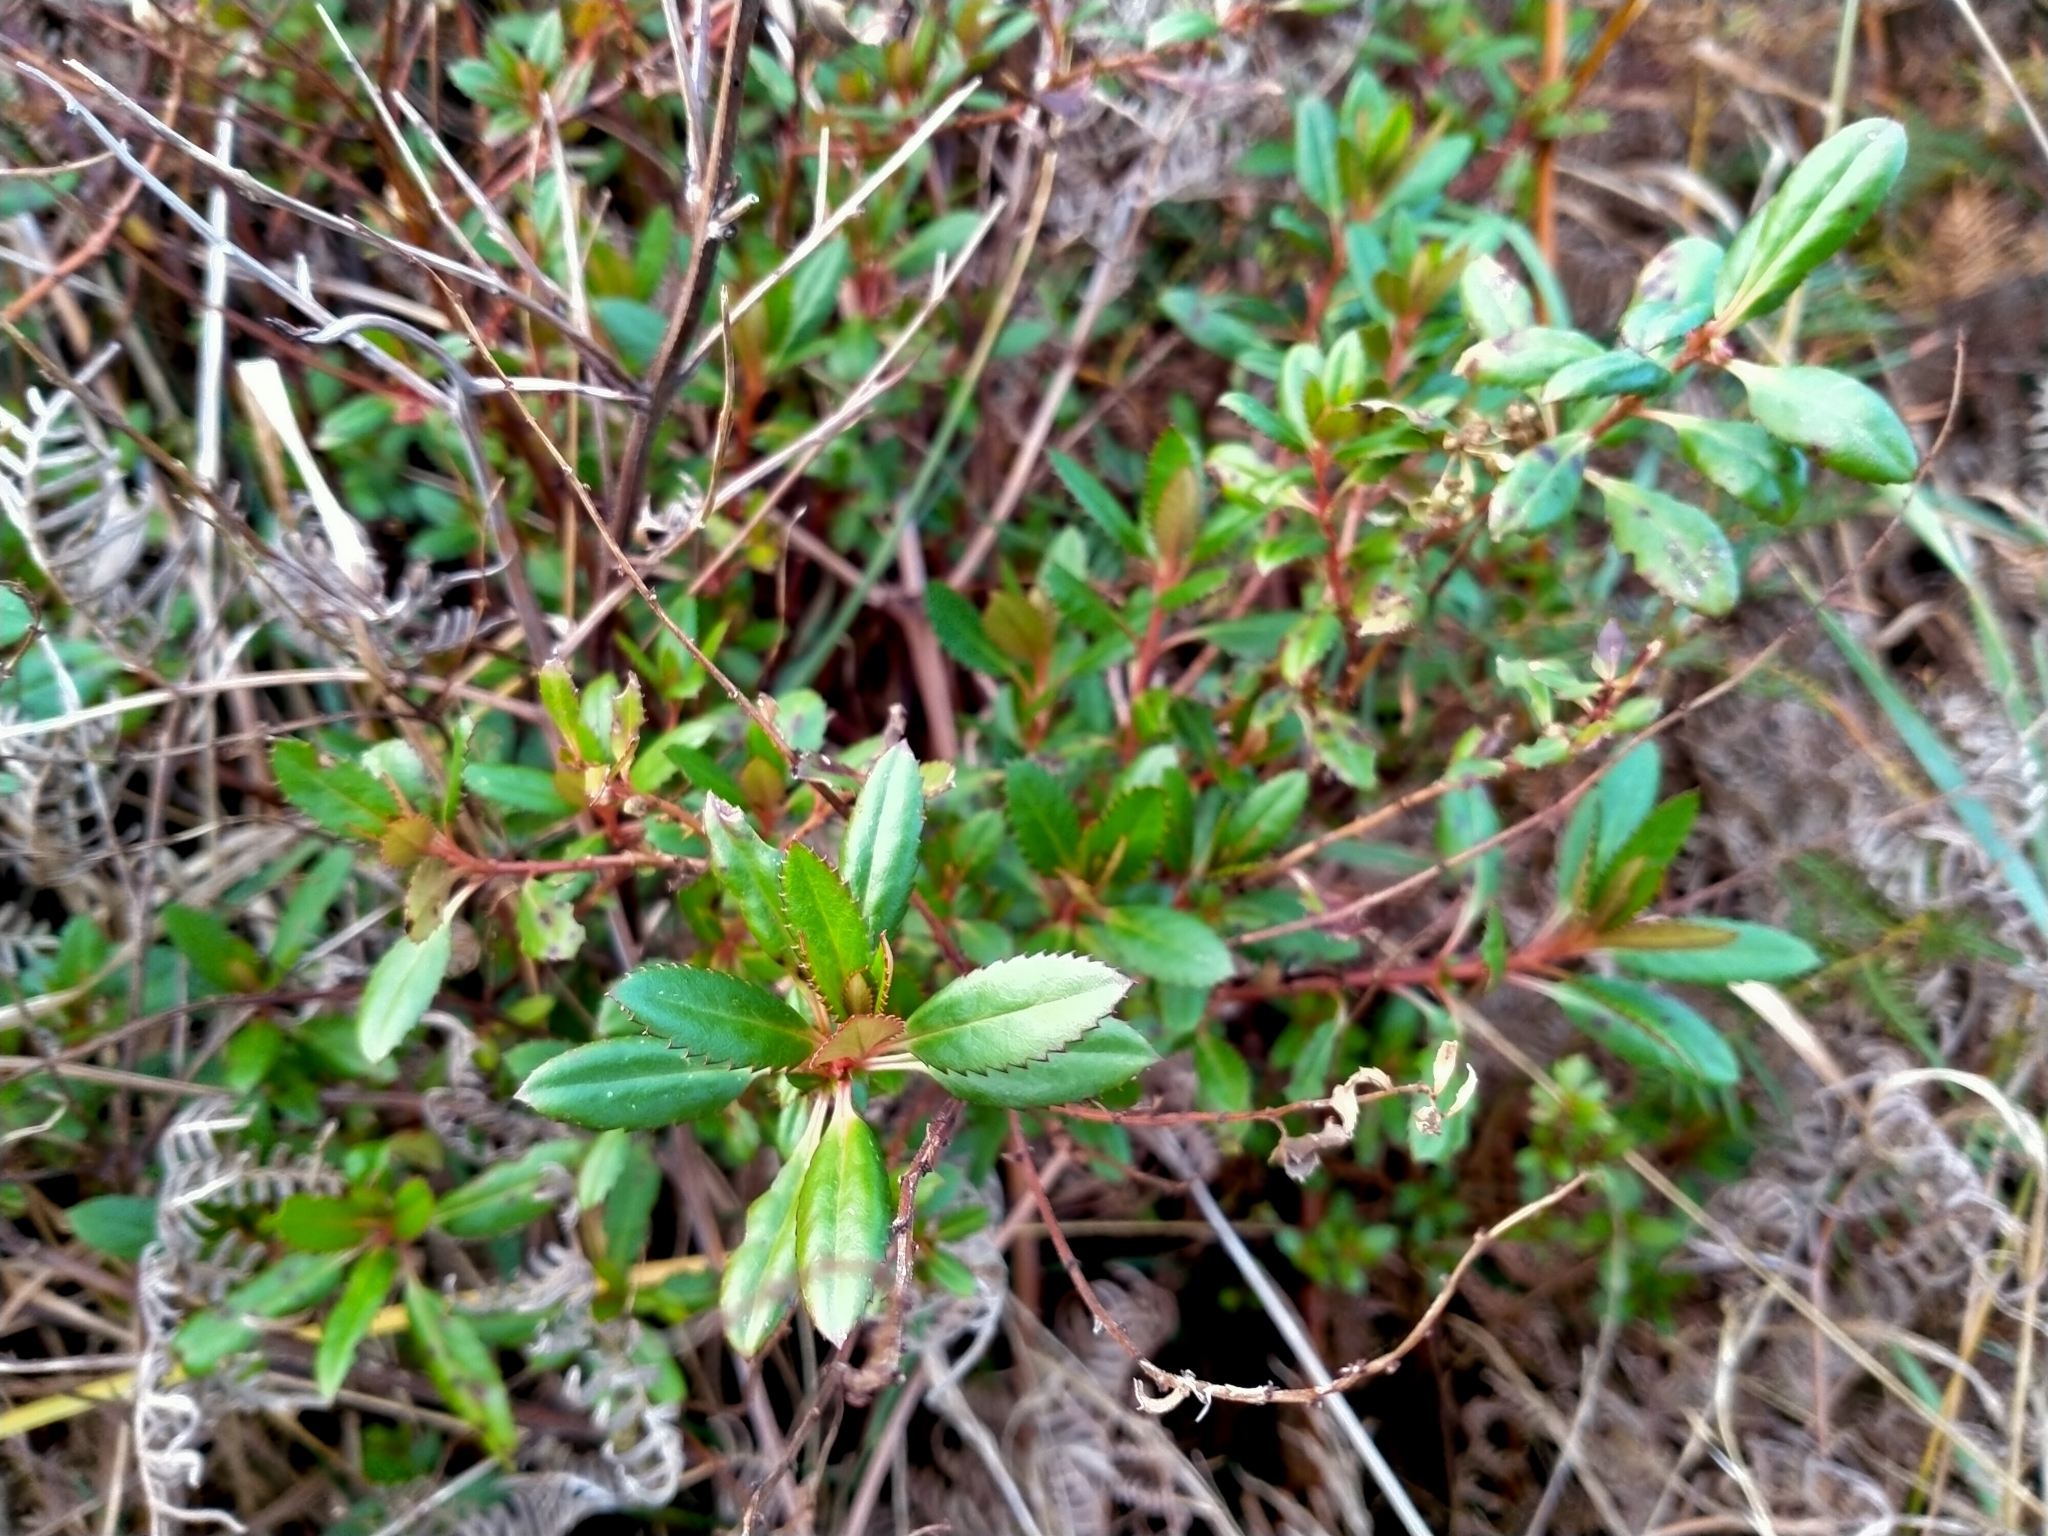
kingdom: Plantae
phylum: Tracheophyta
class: Magnoliopsida
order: Saxifragales
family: Haloragaceae
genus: Haloragis
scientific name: Haloragis erecta
